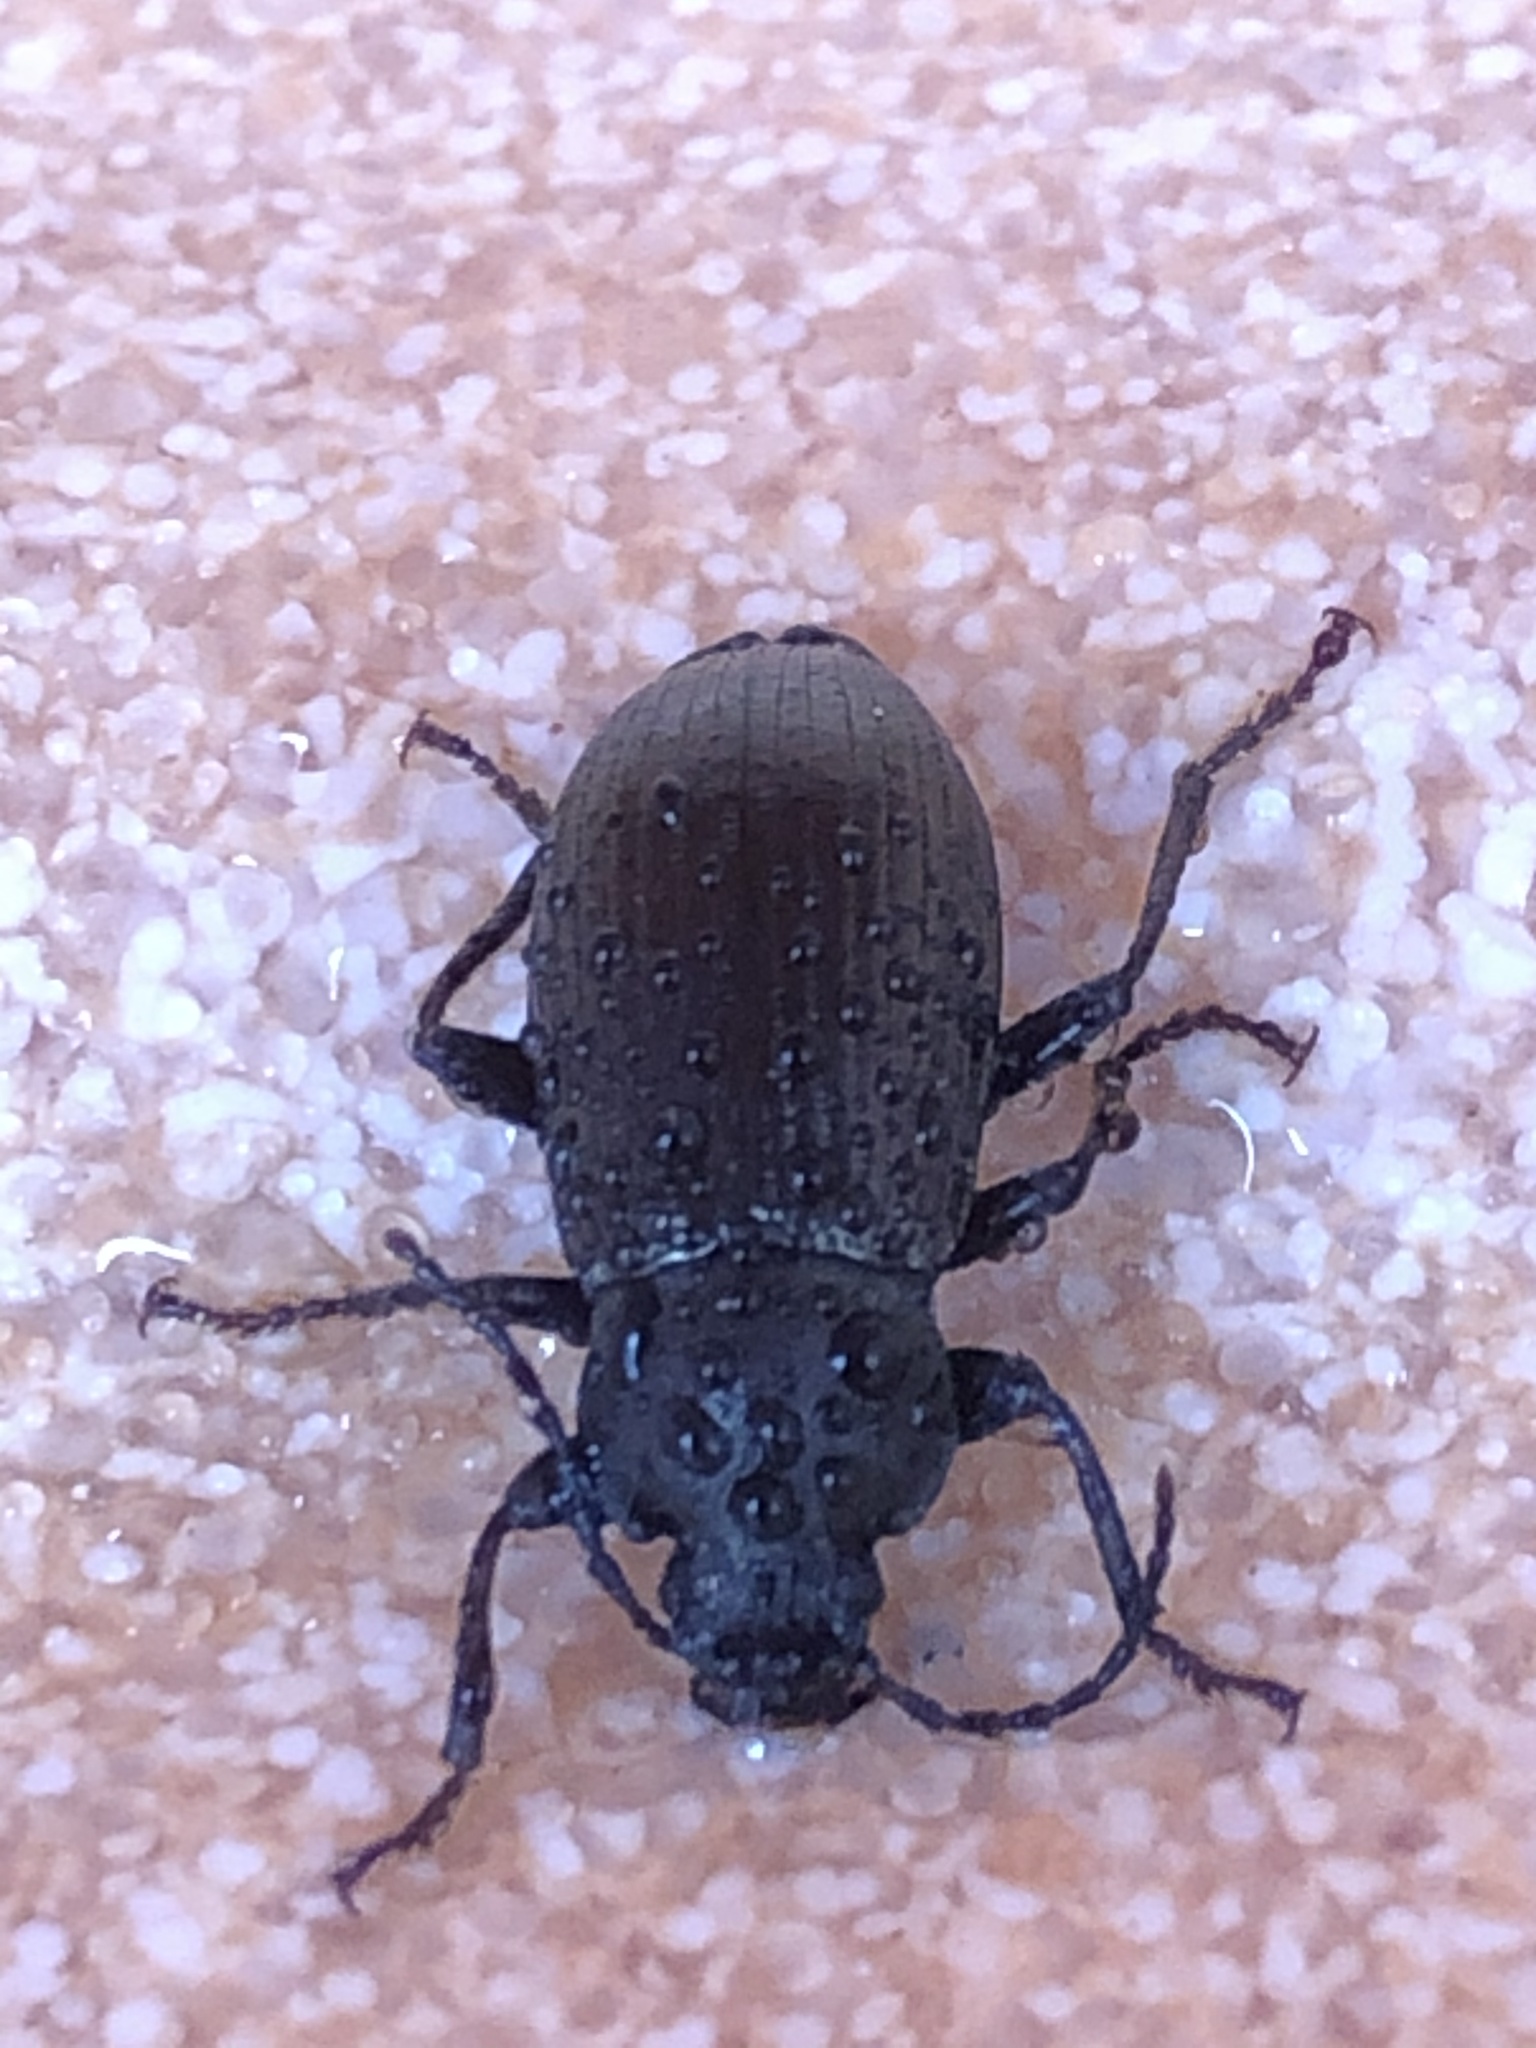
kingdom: Animalia
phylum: Arthropoda
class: Insecta
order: Coleoptera
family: Tenebrionidae
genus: Stenomax
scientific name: Stenomax aeneus
